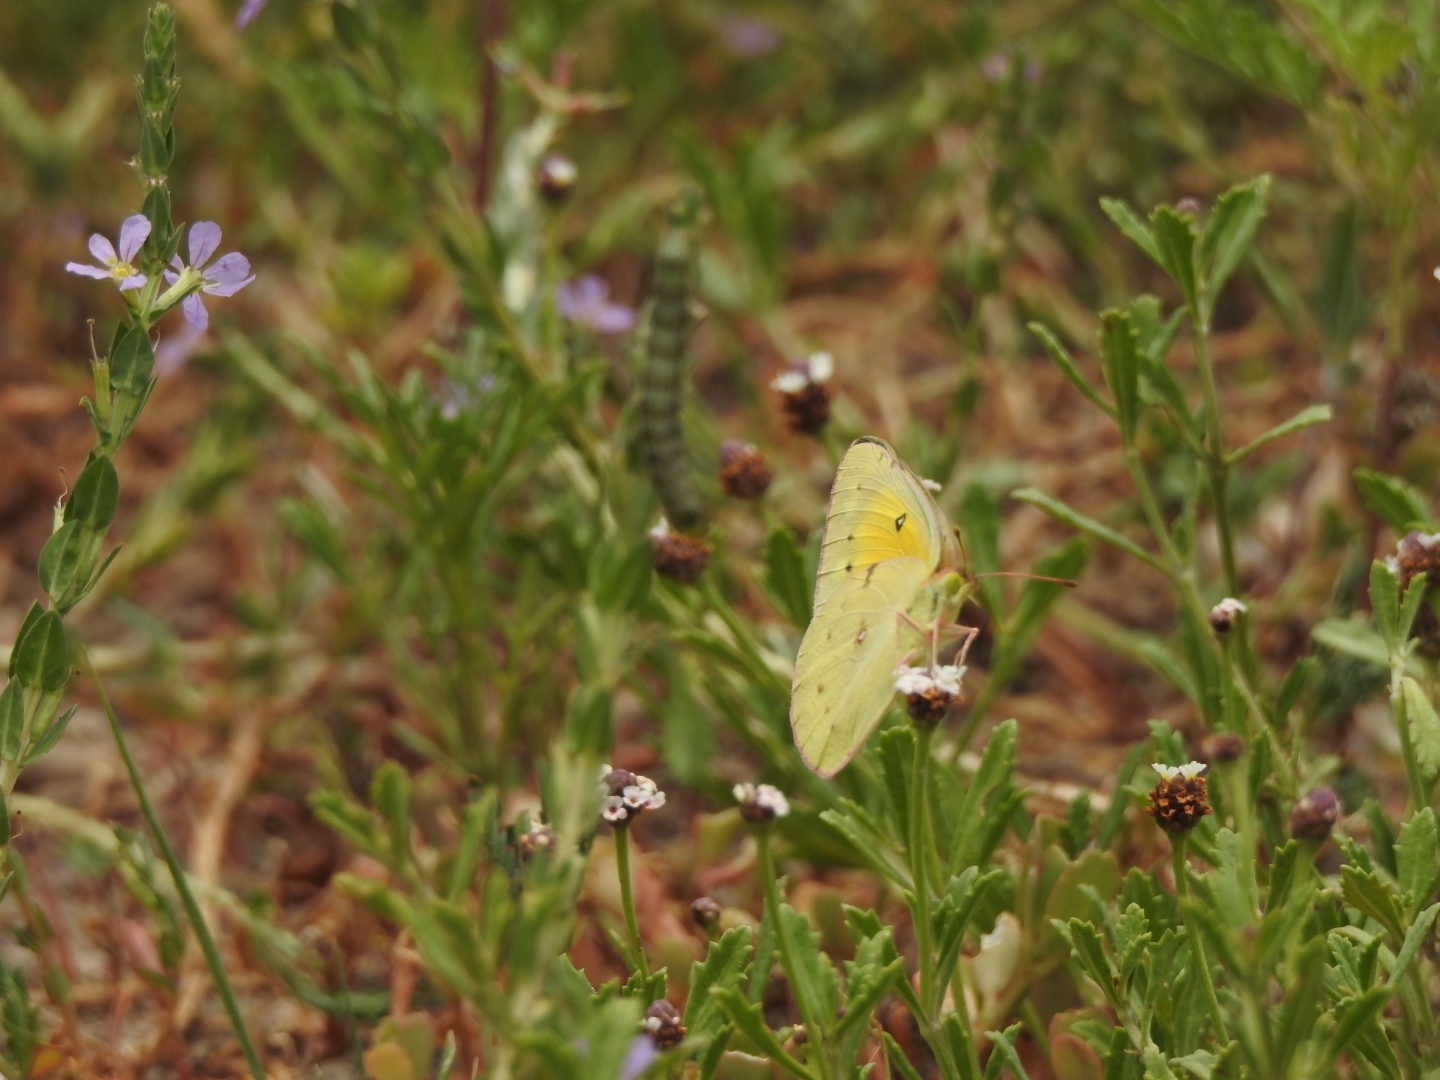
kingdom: Animalia
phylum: Arthropoda
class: Insecta
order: Lepidoptera
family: Pieridae
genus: Colias
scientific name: Colias eurytheme
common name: Alfalfa butterfly
